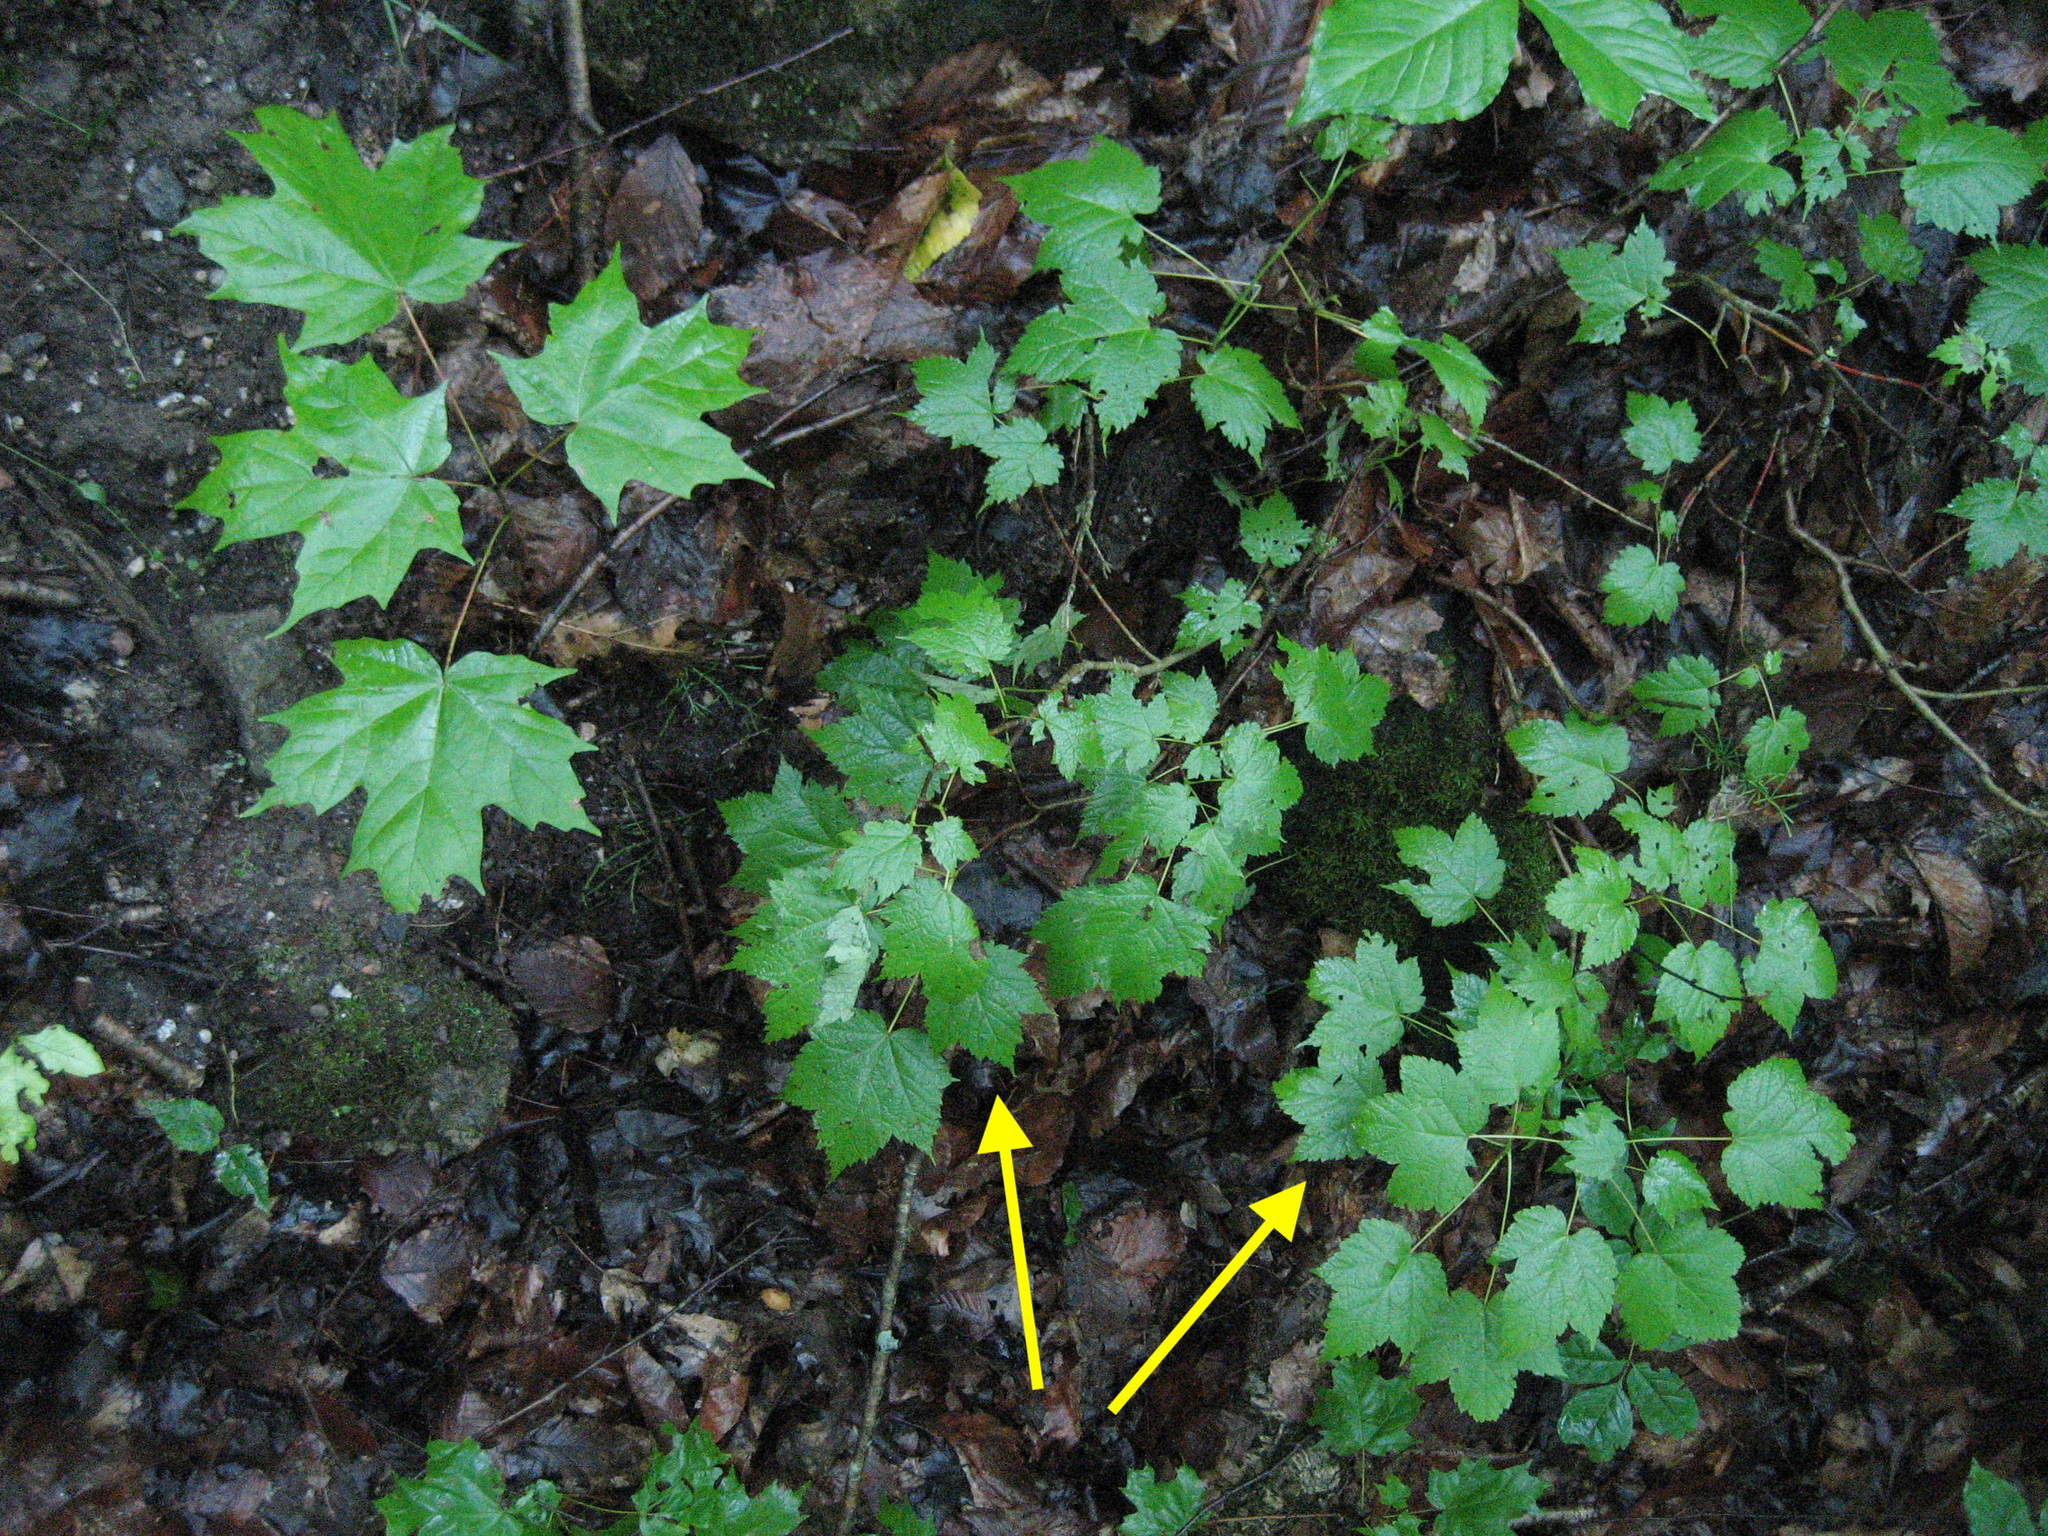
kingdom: Plantae
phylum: Tracheophyta
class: Magnoliopsida
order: Sapindales
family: Sapindaceae
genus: Acer
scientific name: Acer spicatum
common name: Mountain maple
